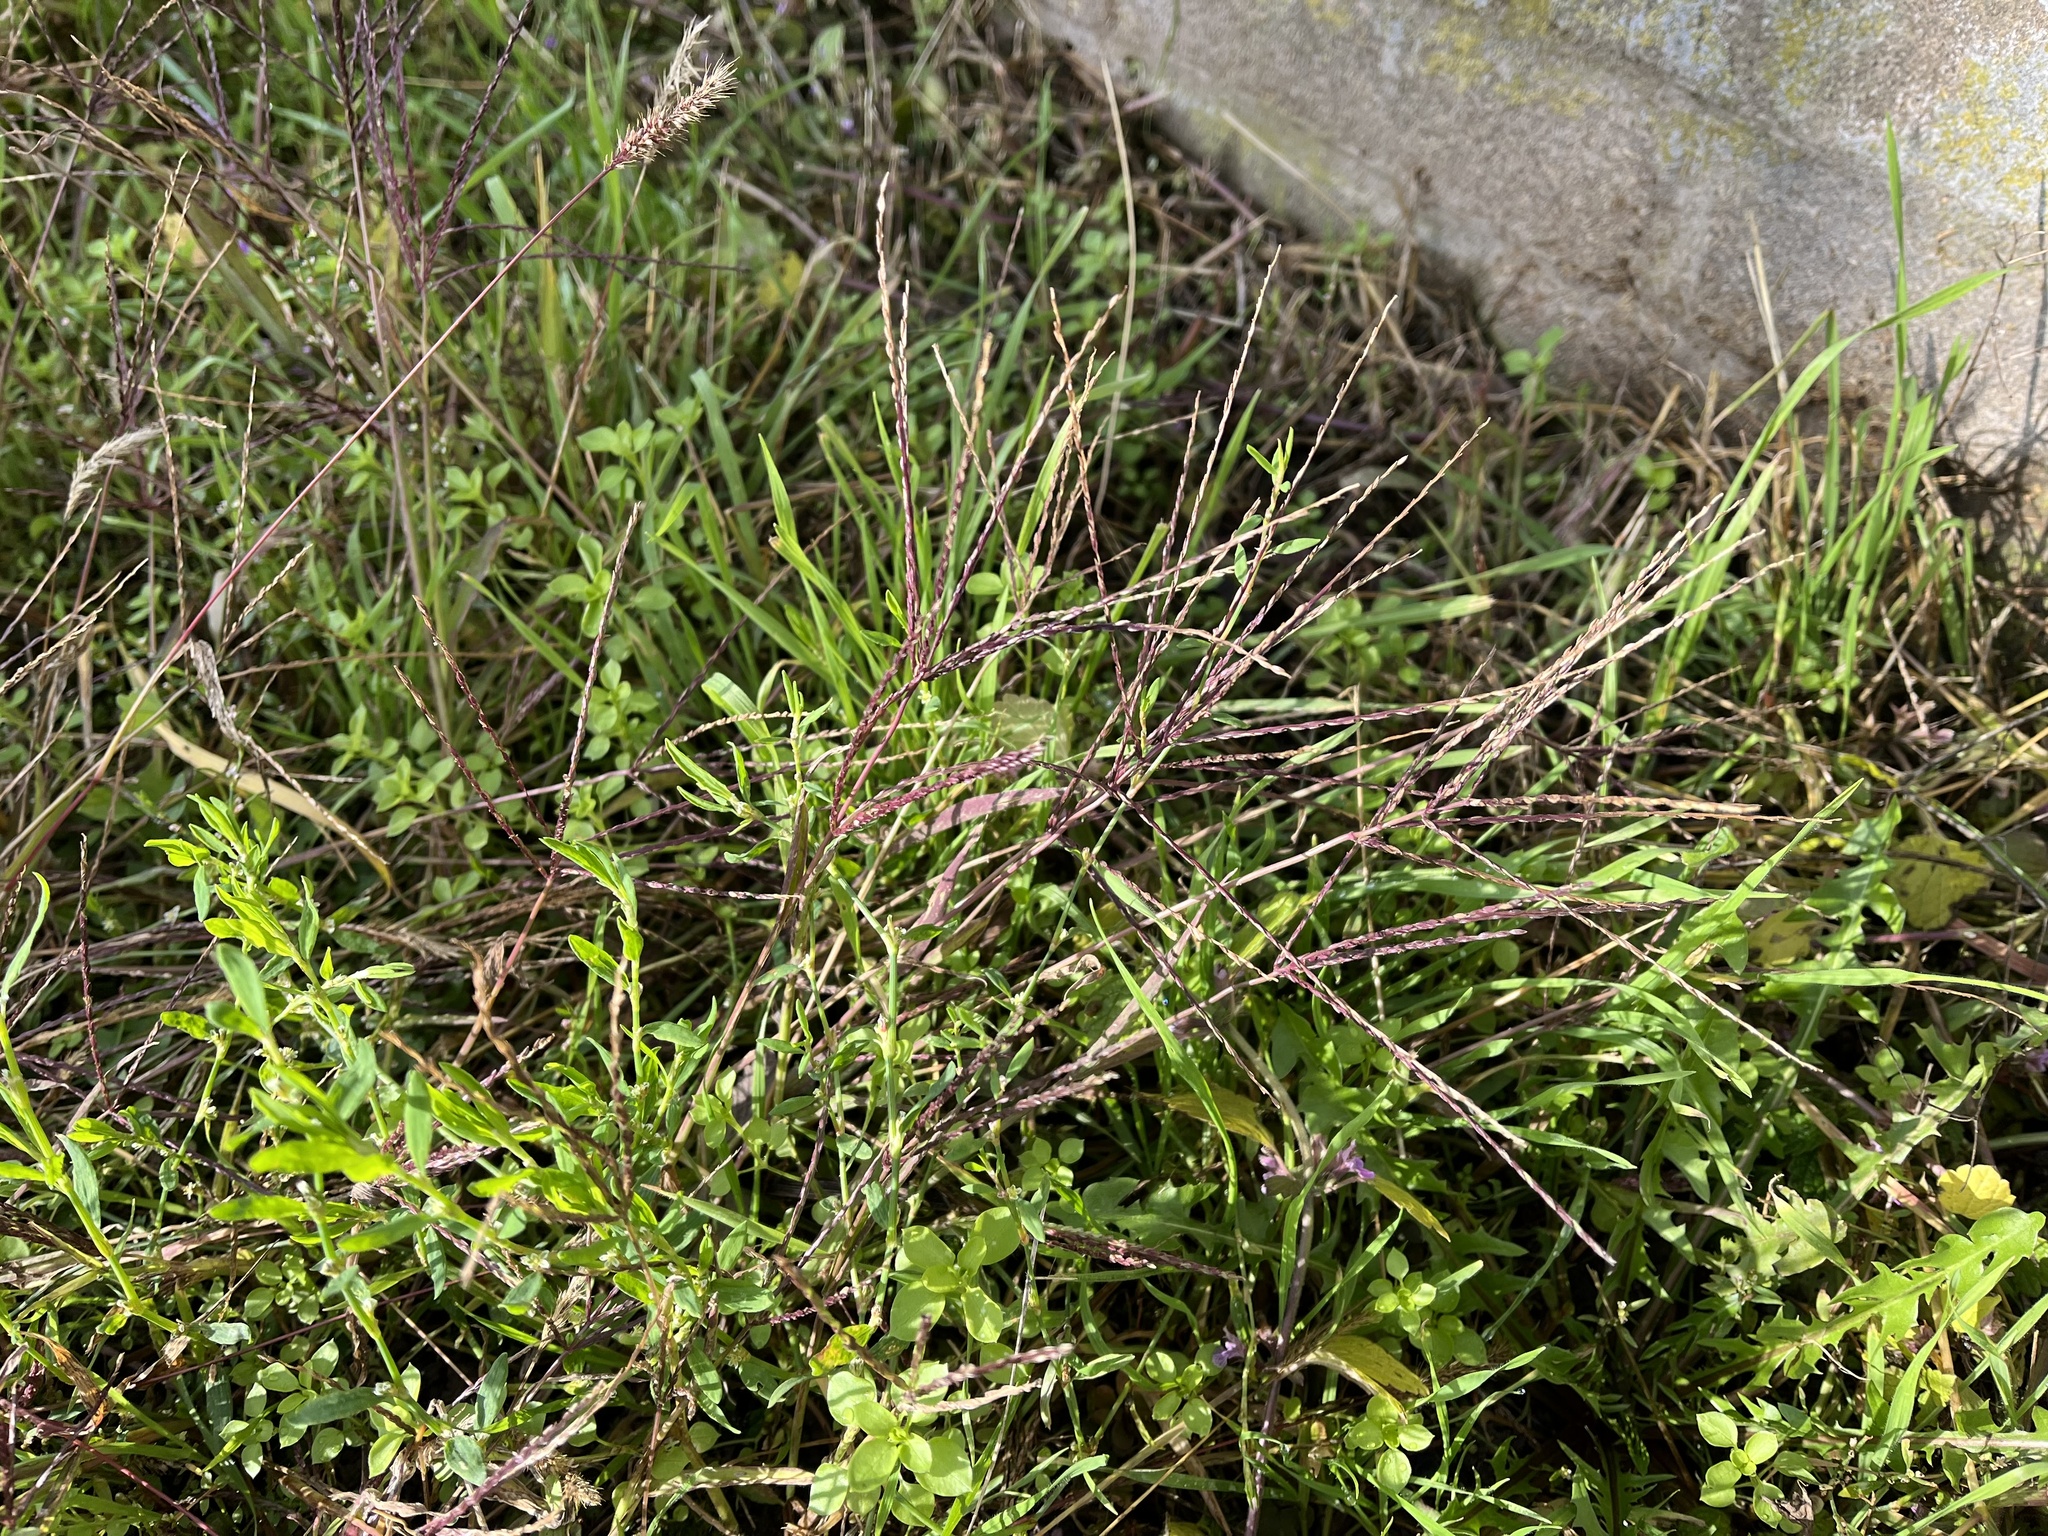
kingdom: Plantae
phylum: Tracheophyta
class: Liliopsida
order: Poales
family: Poaceae
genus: Digitaria
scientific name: Digitaria sanguinalis
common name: Hairy crabgrass
